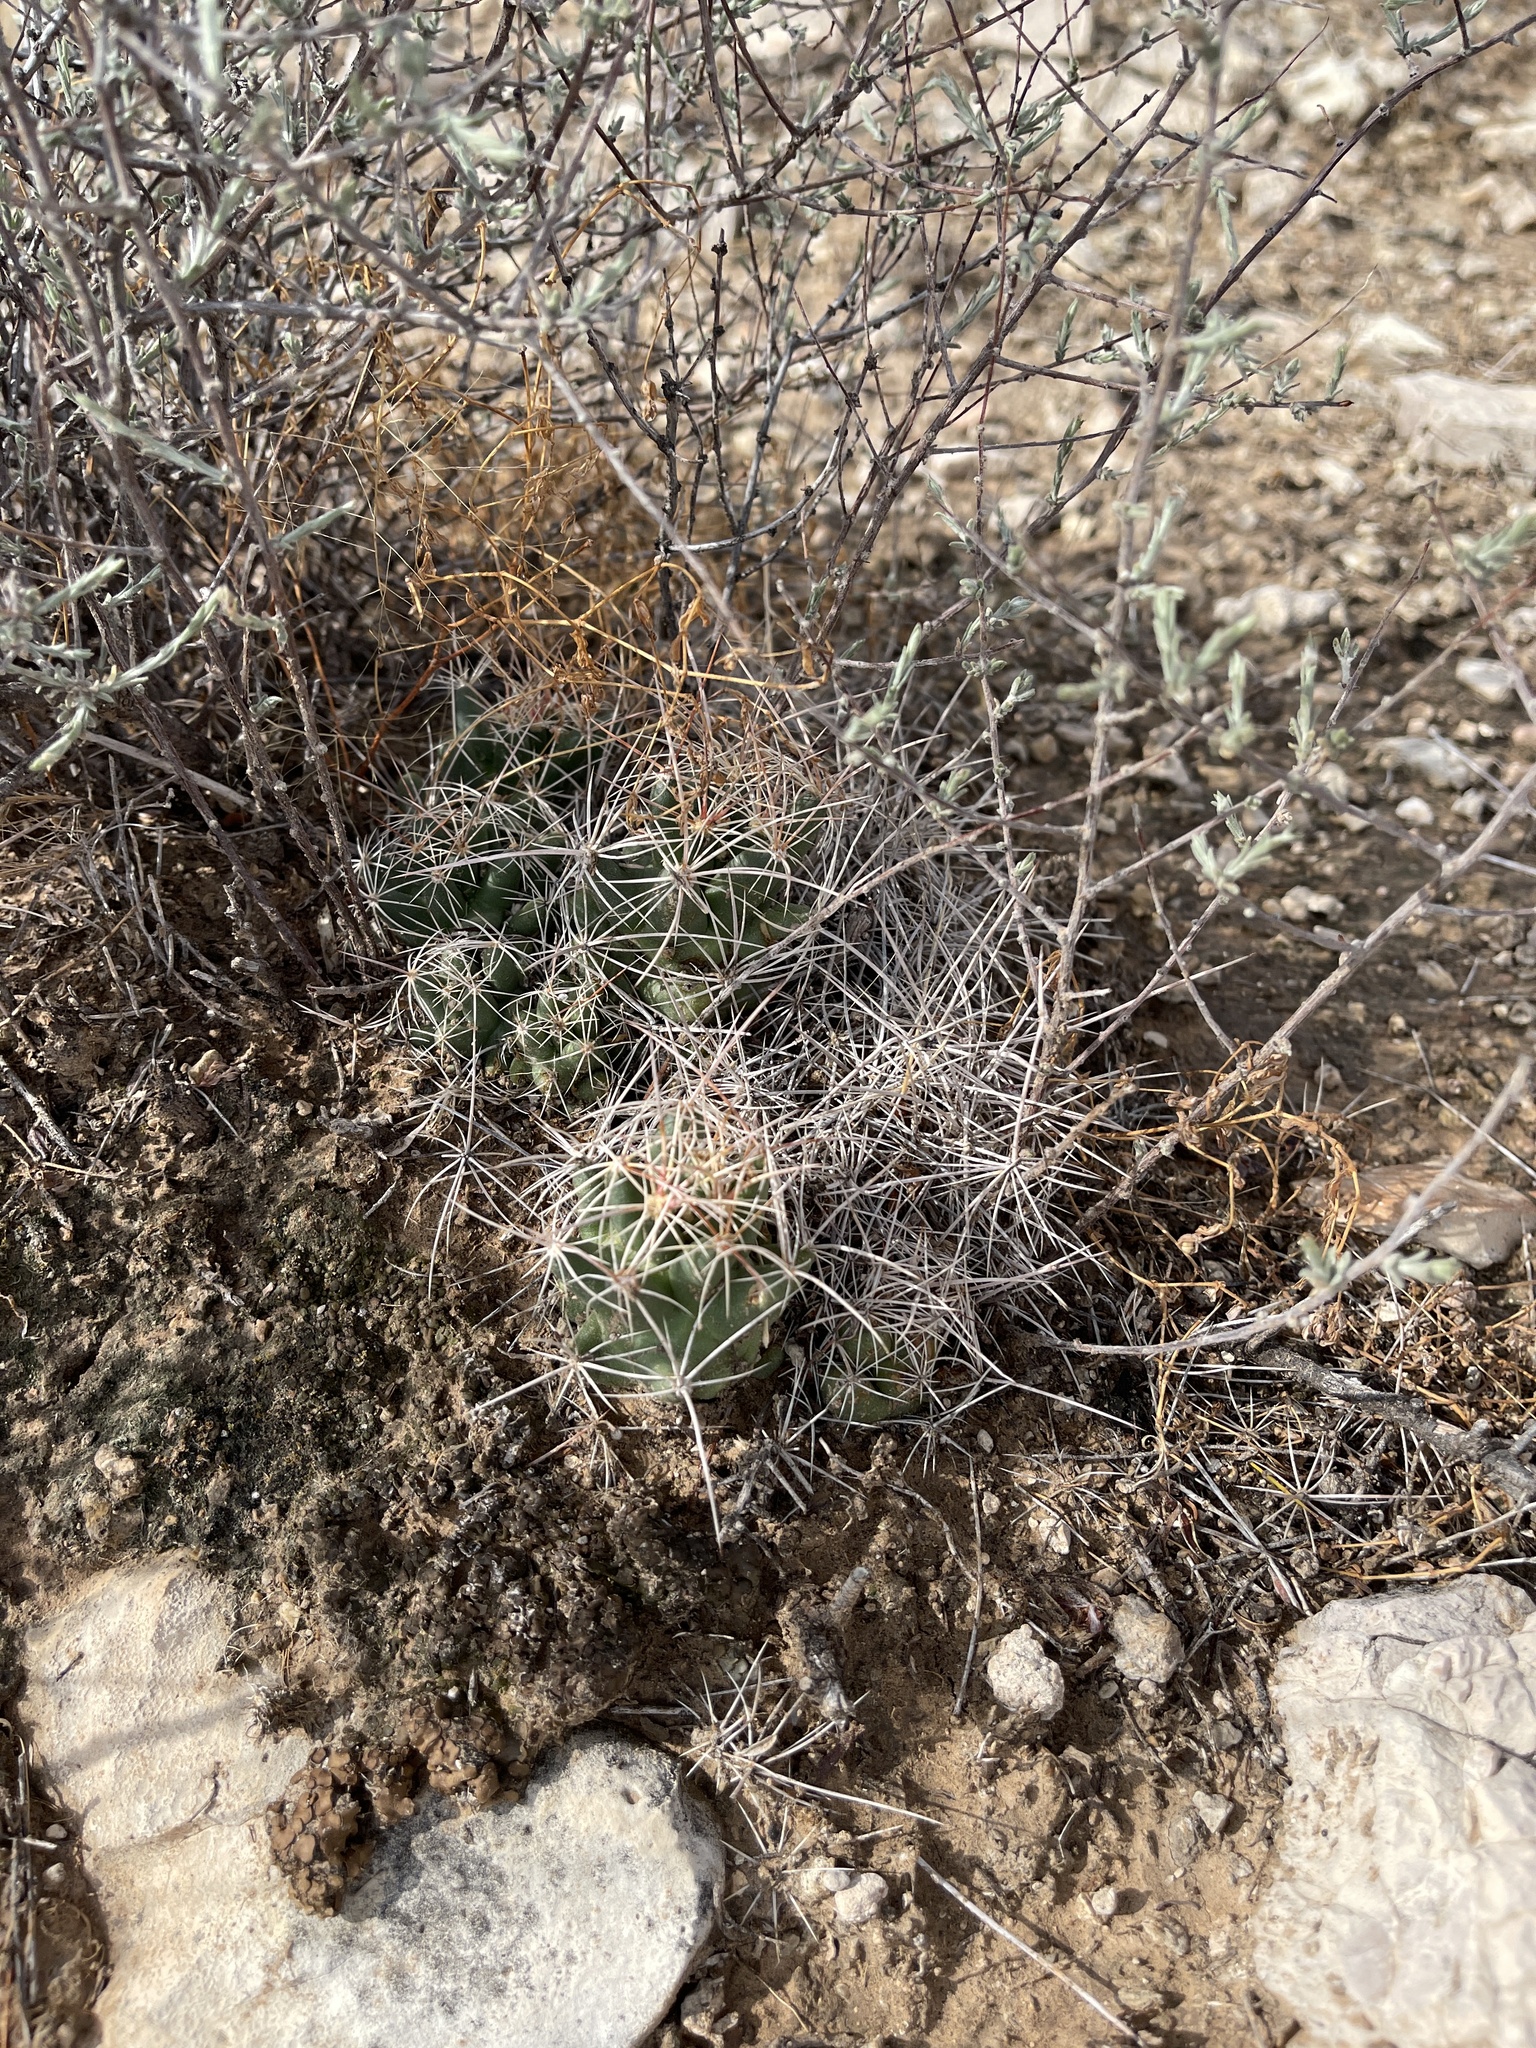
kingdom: Plantae
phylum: Tracheophyta
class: Magnoliopsida
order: Caryophyllales
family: Cactaceae
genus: Coryphantha
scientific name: Coryphantha macromeris
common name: Nipple beehive cactus
